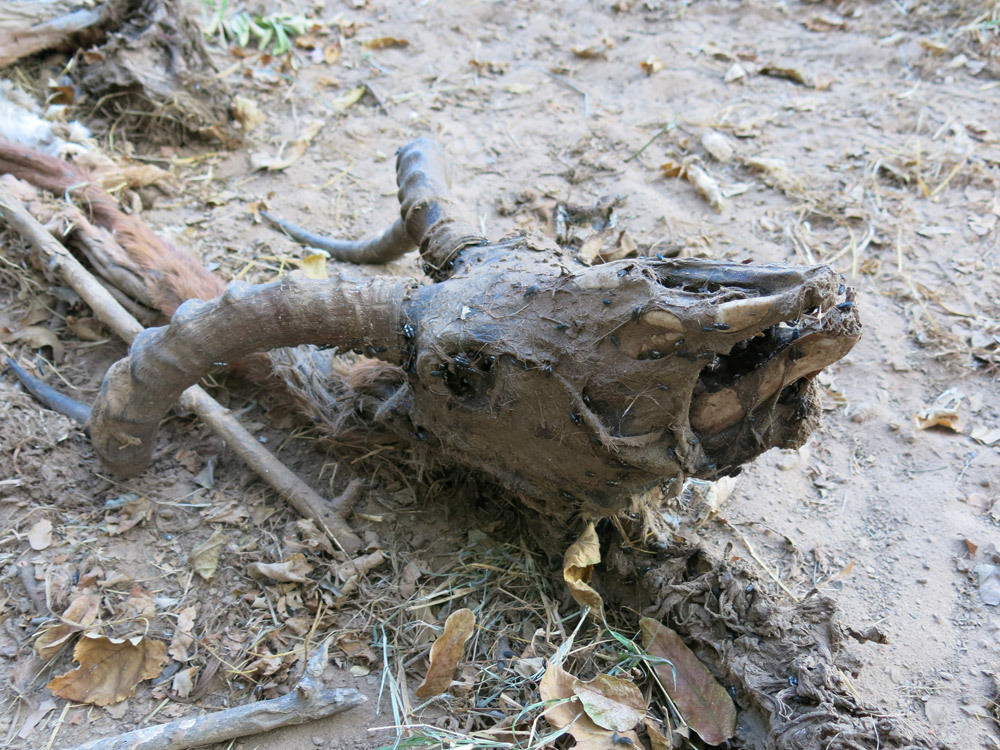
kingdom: Animalia
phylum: Chordata
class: Mammalia
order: Artiodactyla
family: Bovidae
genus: Aepyceros
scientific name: Aepyceros melampus
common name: Impala
